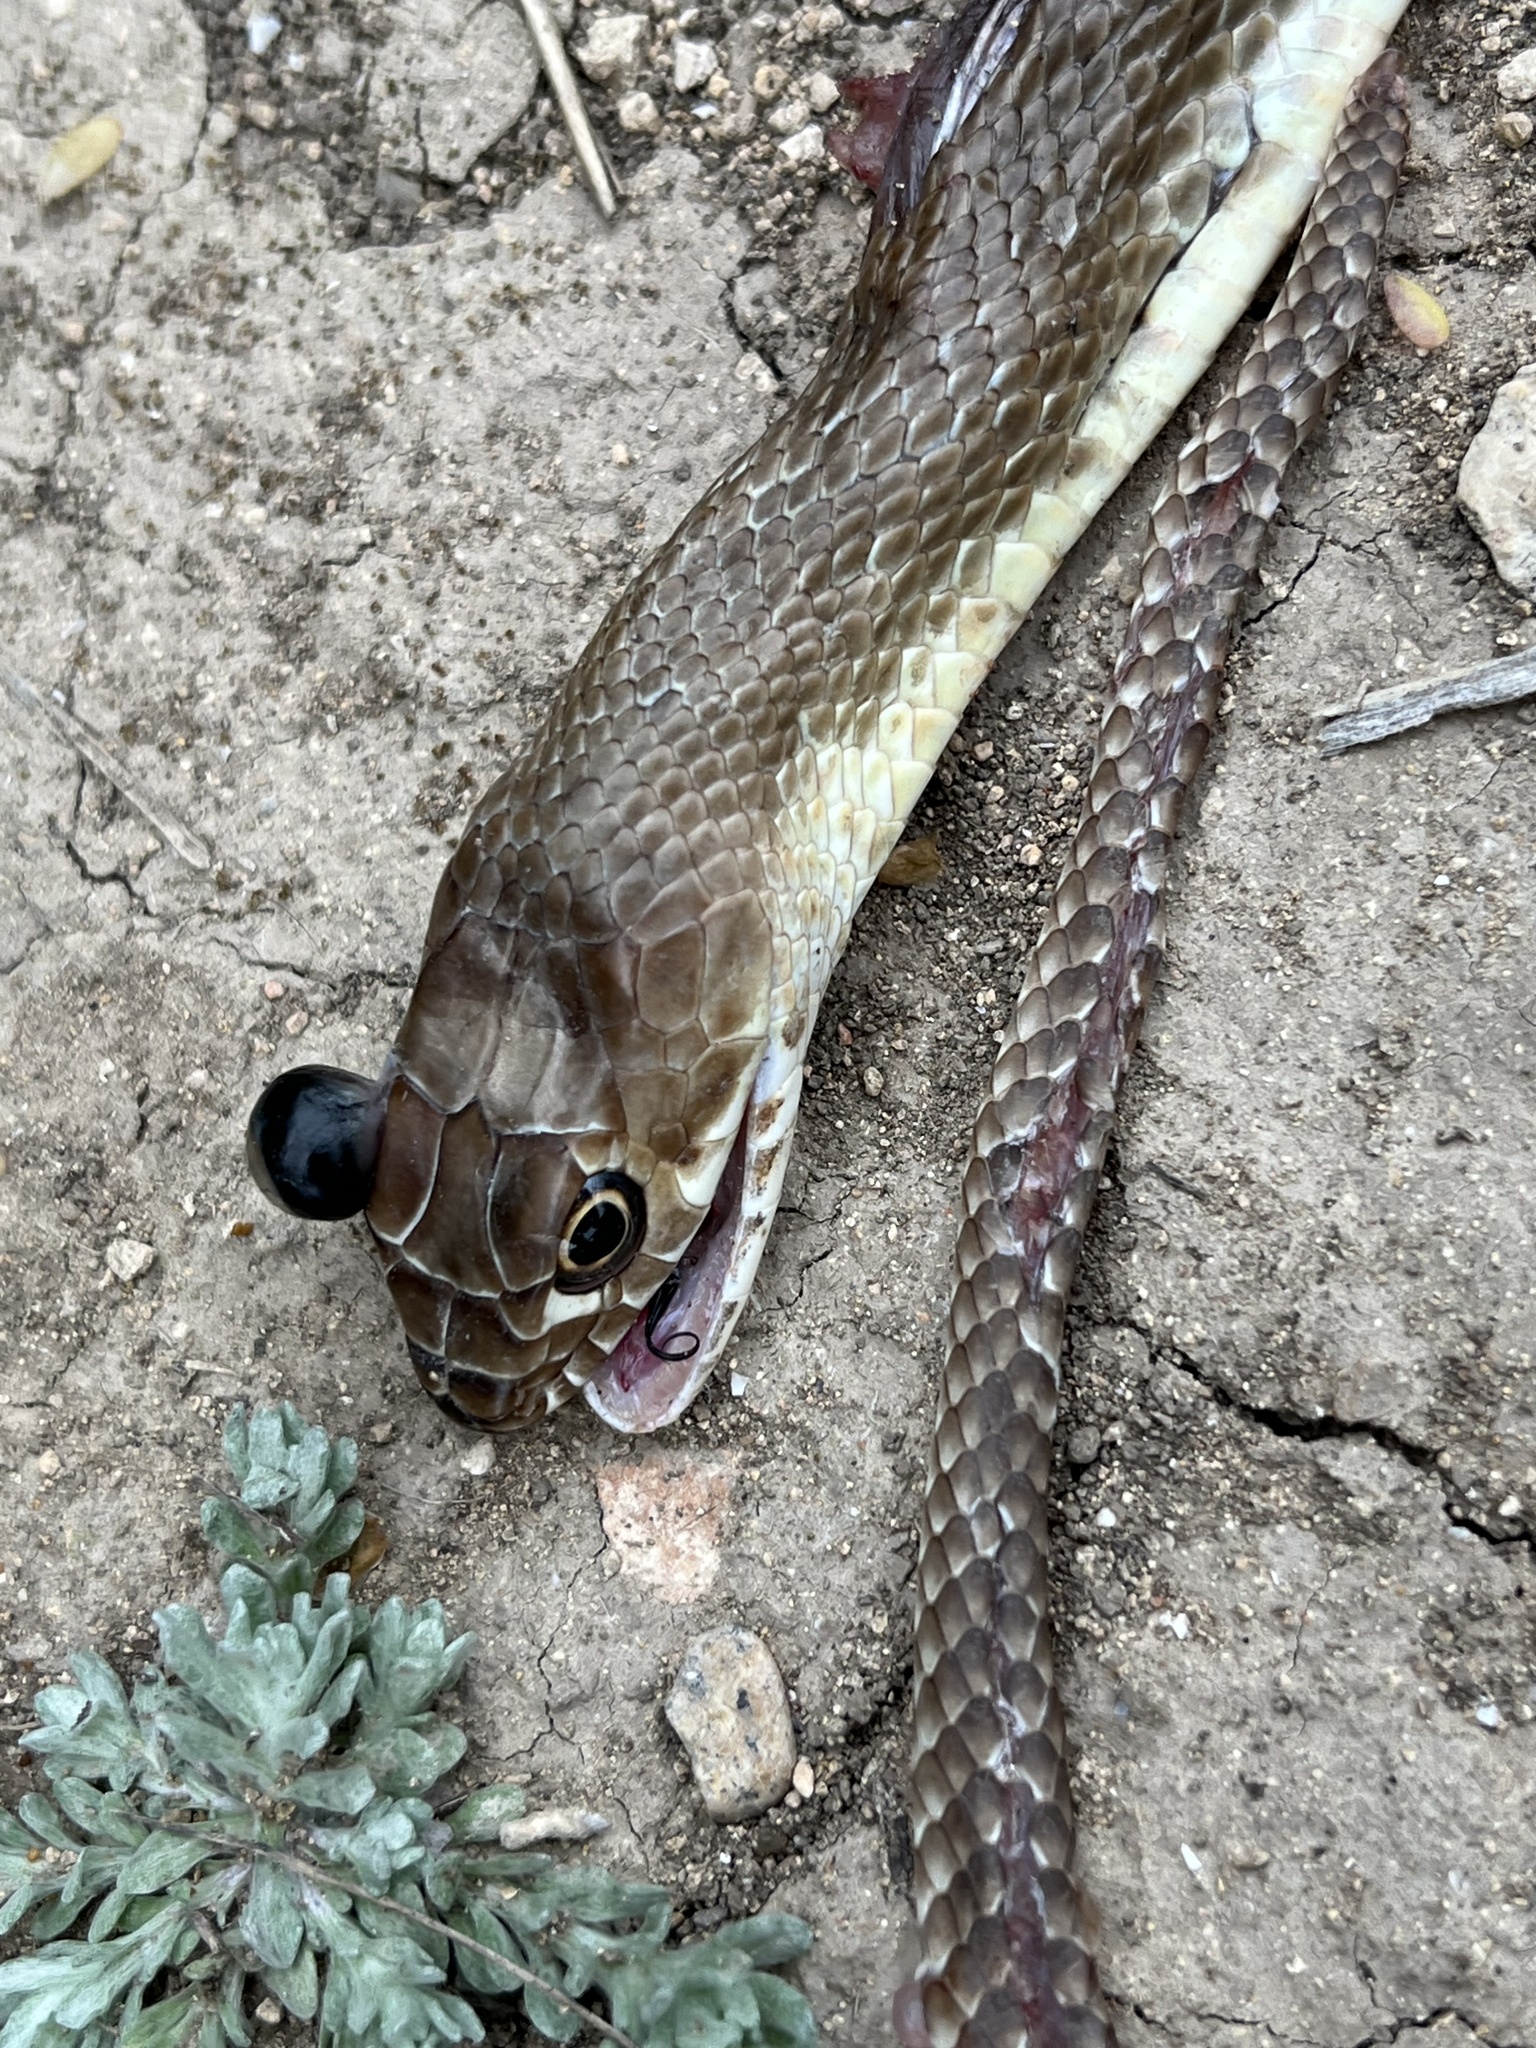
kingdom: Animalia
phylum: Chordata
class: Squamata
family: Colubridae
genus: Masticophis
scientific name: Masticophis flagellum
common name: Coachwhip
